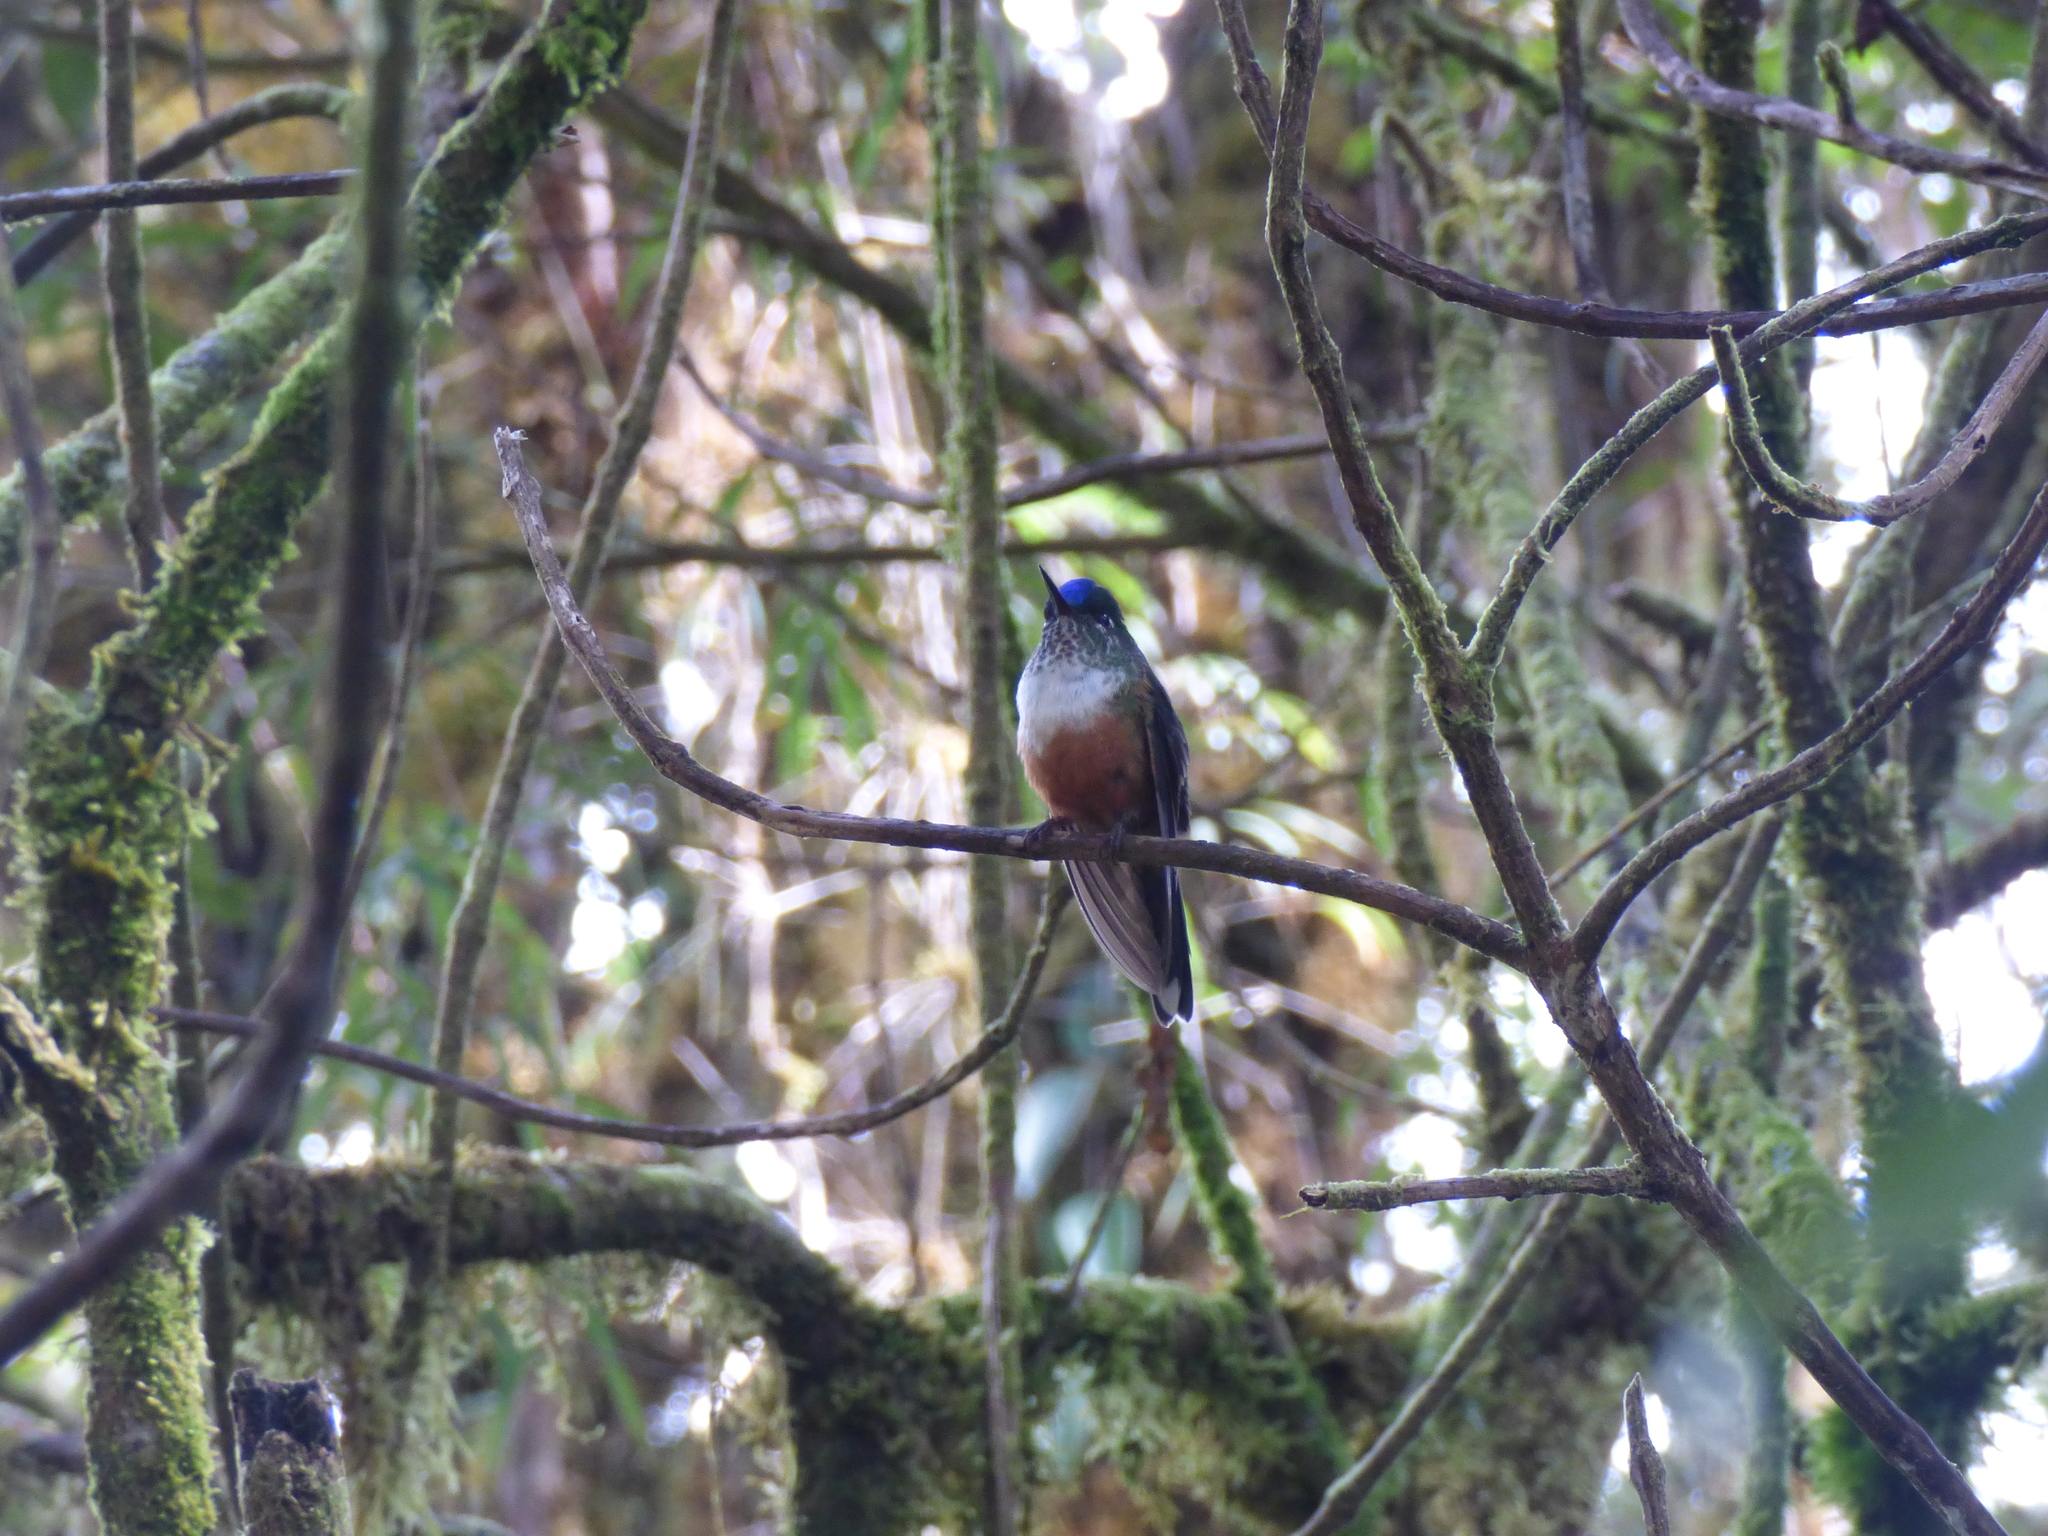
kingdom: Animalia
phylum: Chordata
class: Aves
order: Apodiformes
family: Trochilidae
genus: Aglaiocercus
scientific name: Aglaiocercus coelestis
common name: Violet-tailed sylph
